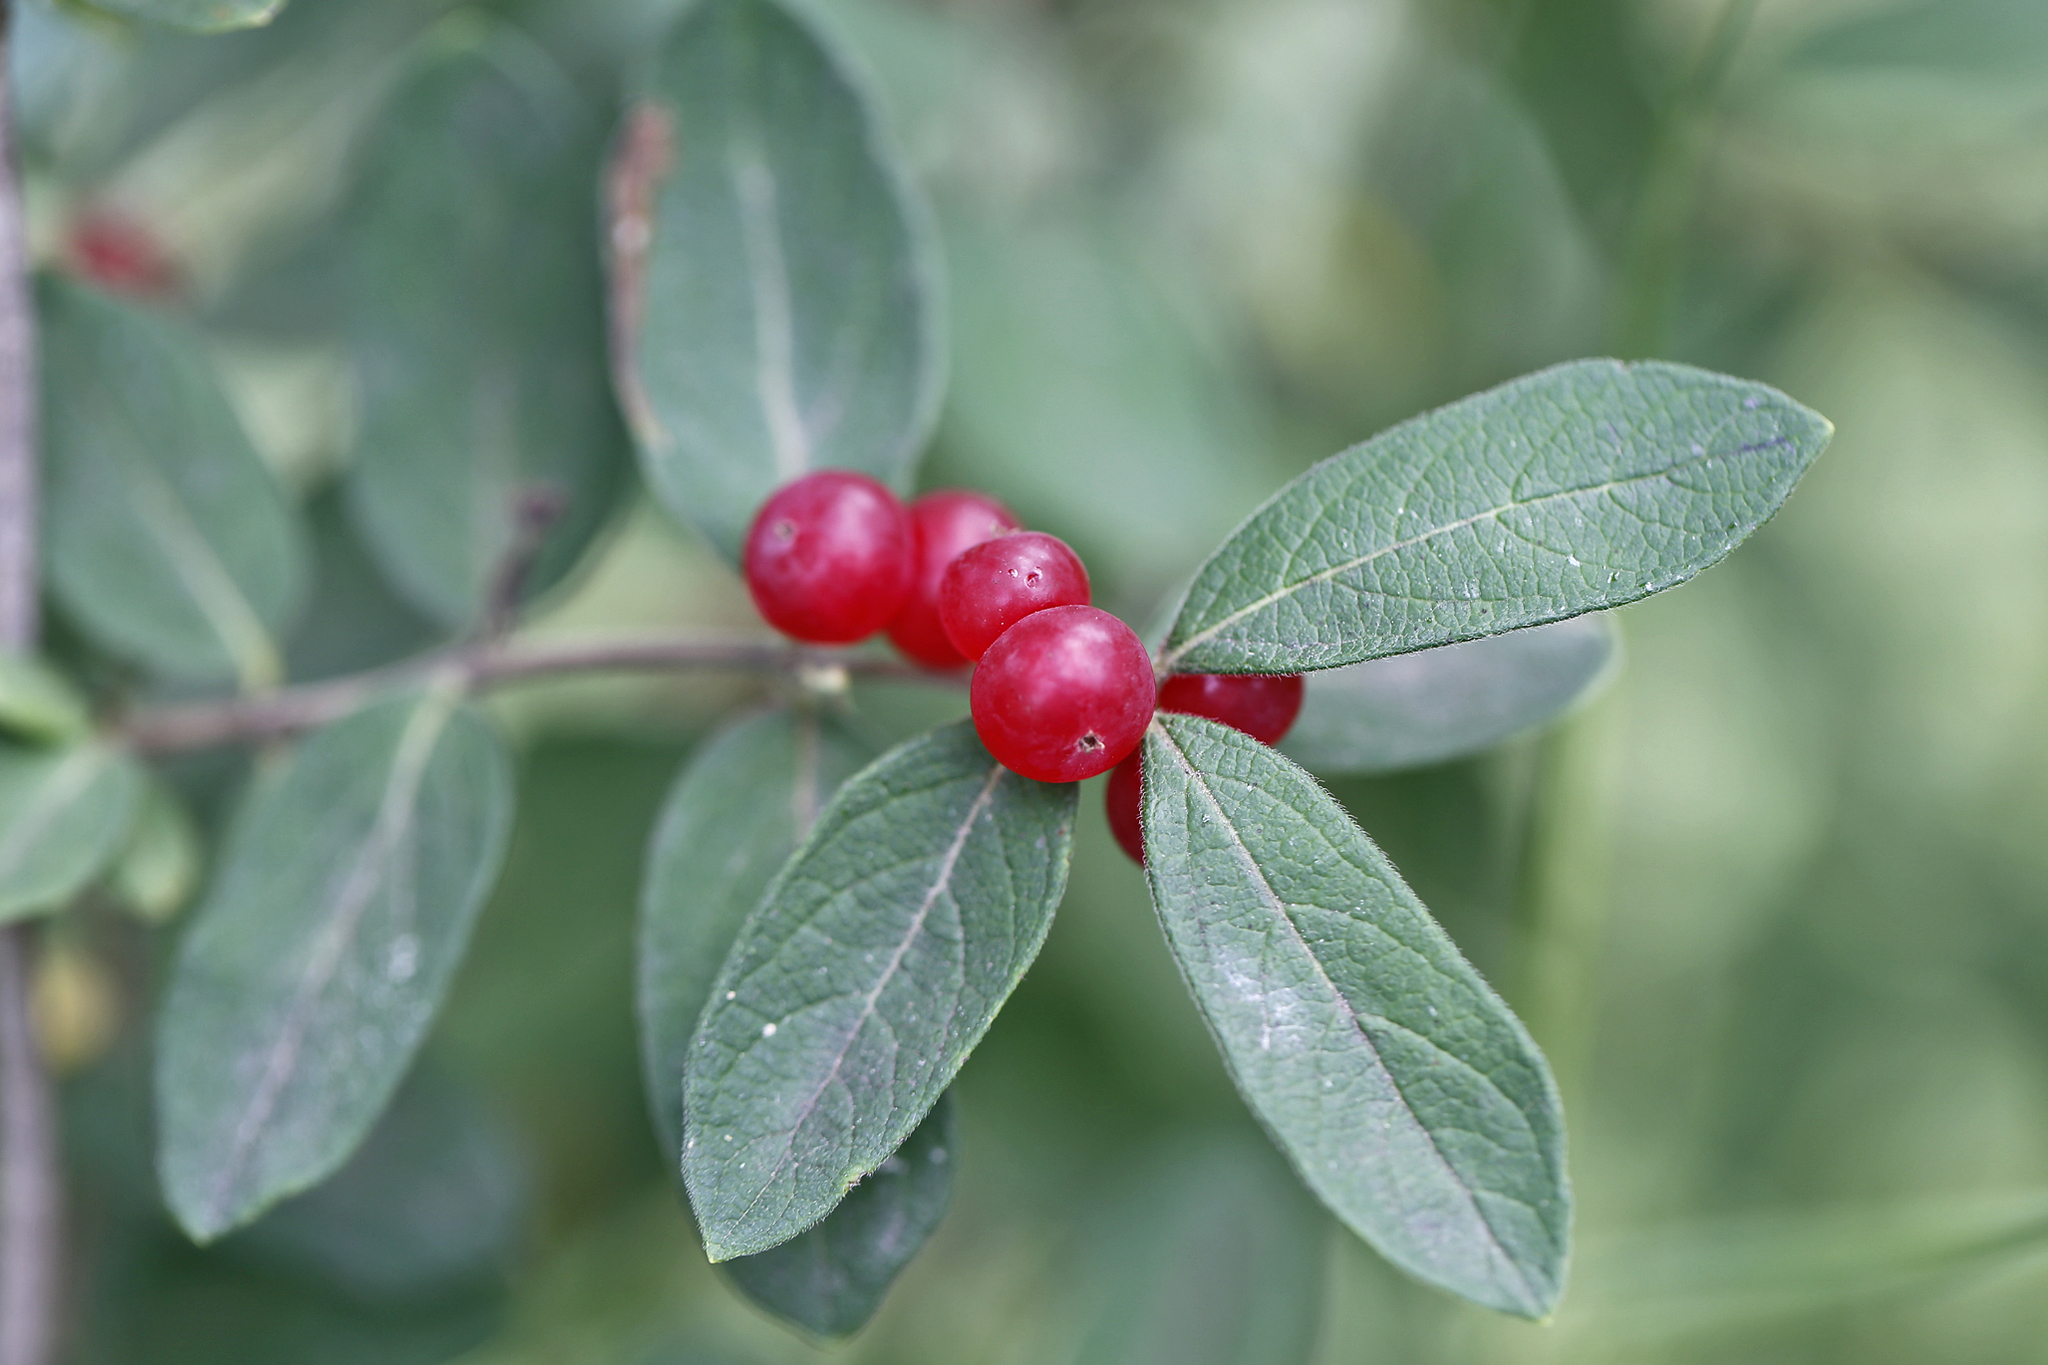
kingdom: Plantae
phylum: Tracheophyta
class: Magnoliopsida
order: Dipsacales
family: Caprifoliaceae
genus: Lonicera
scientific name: Lonicera
